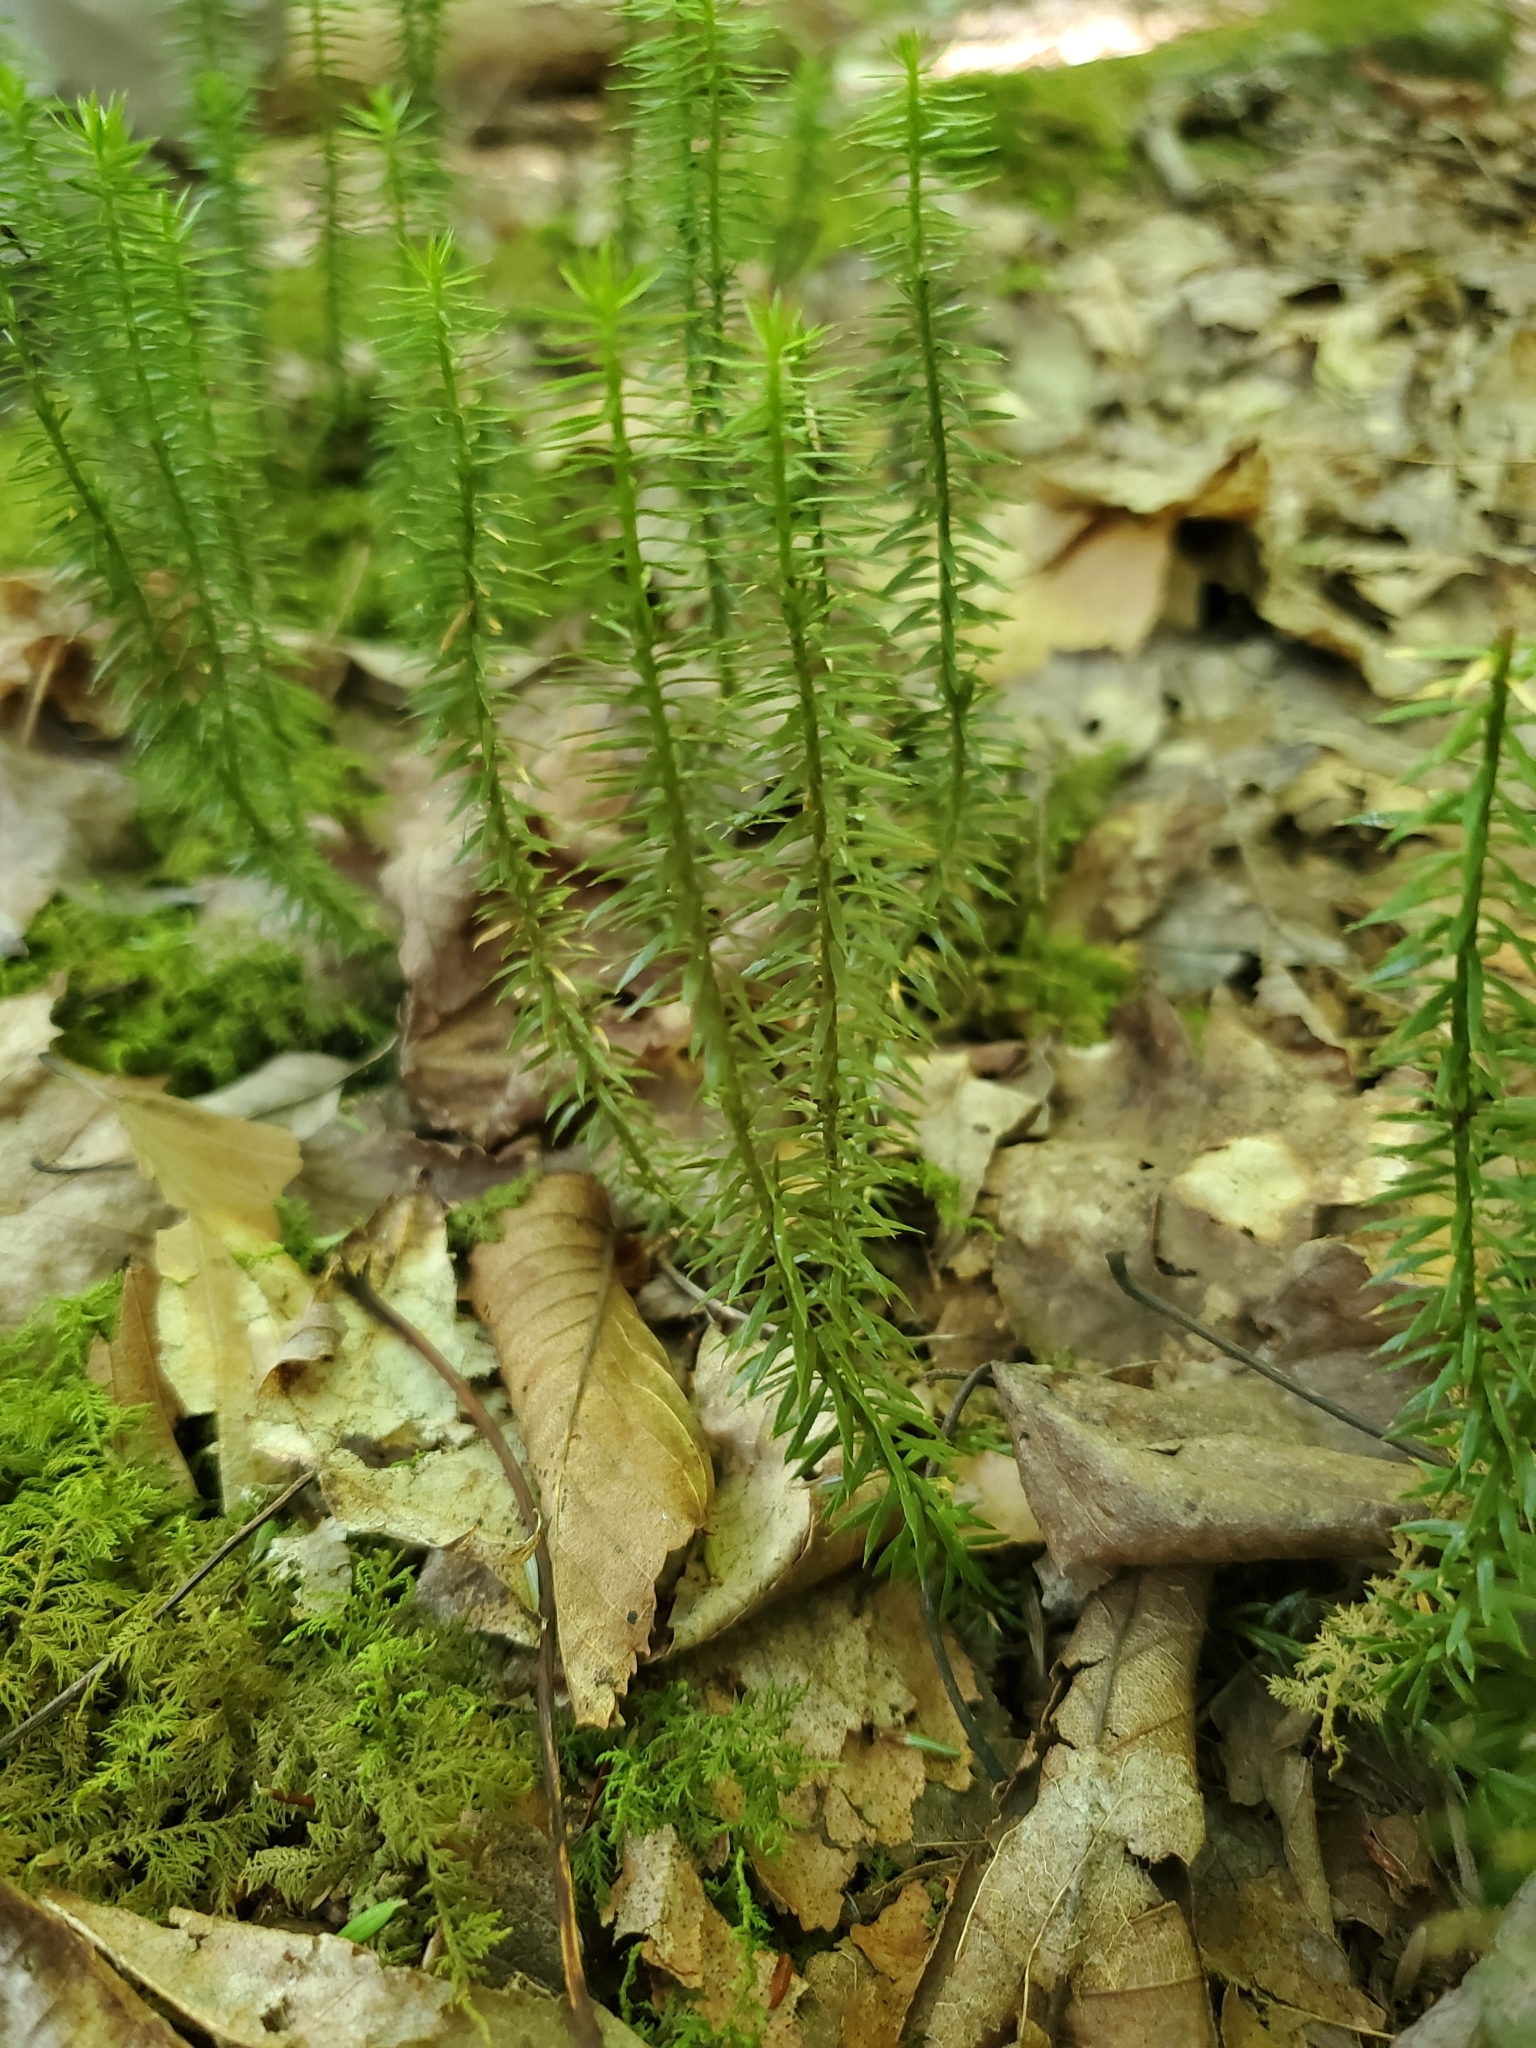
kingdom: Plantae
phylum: Tracheophyta
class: Lycopodiopsida
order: Lycopodiales
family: Lycopodiaceae
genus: Spinulum
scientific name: Spinulum annotinum
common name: Interrupted club-moss
